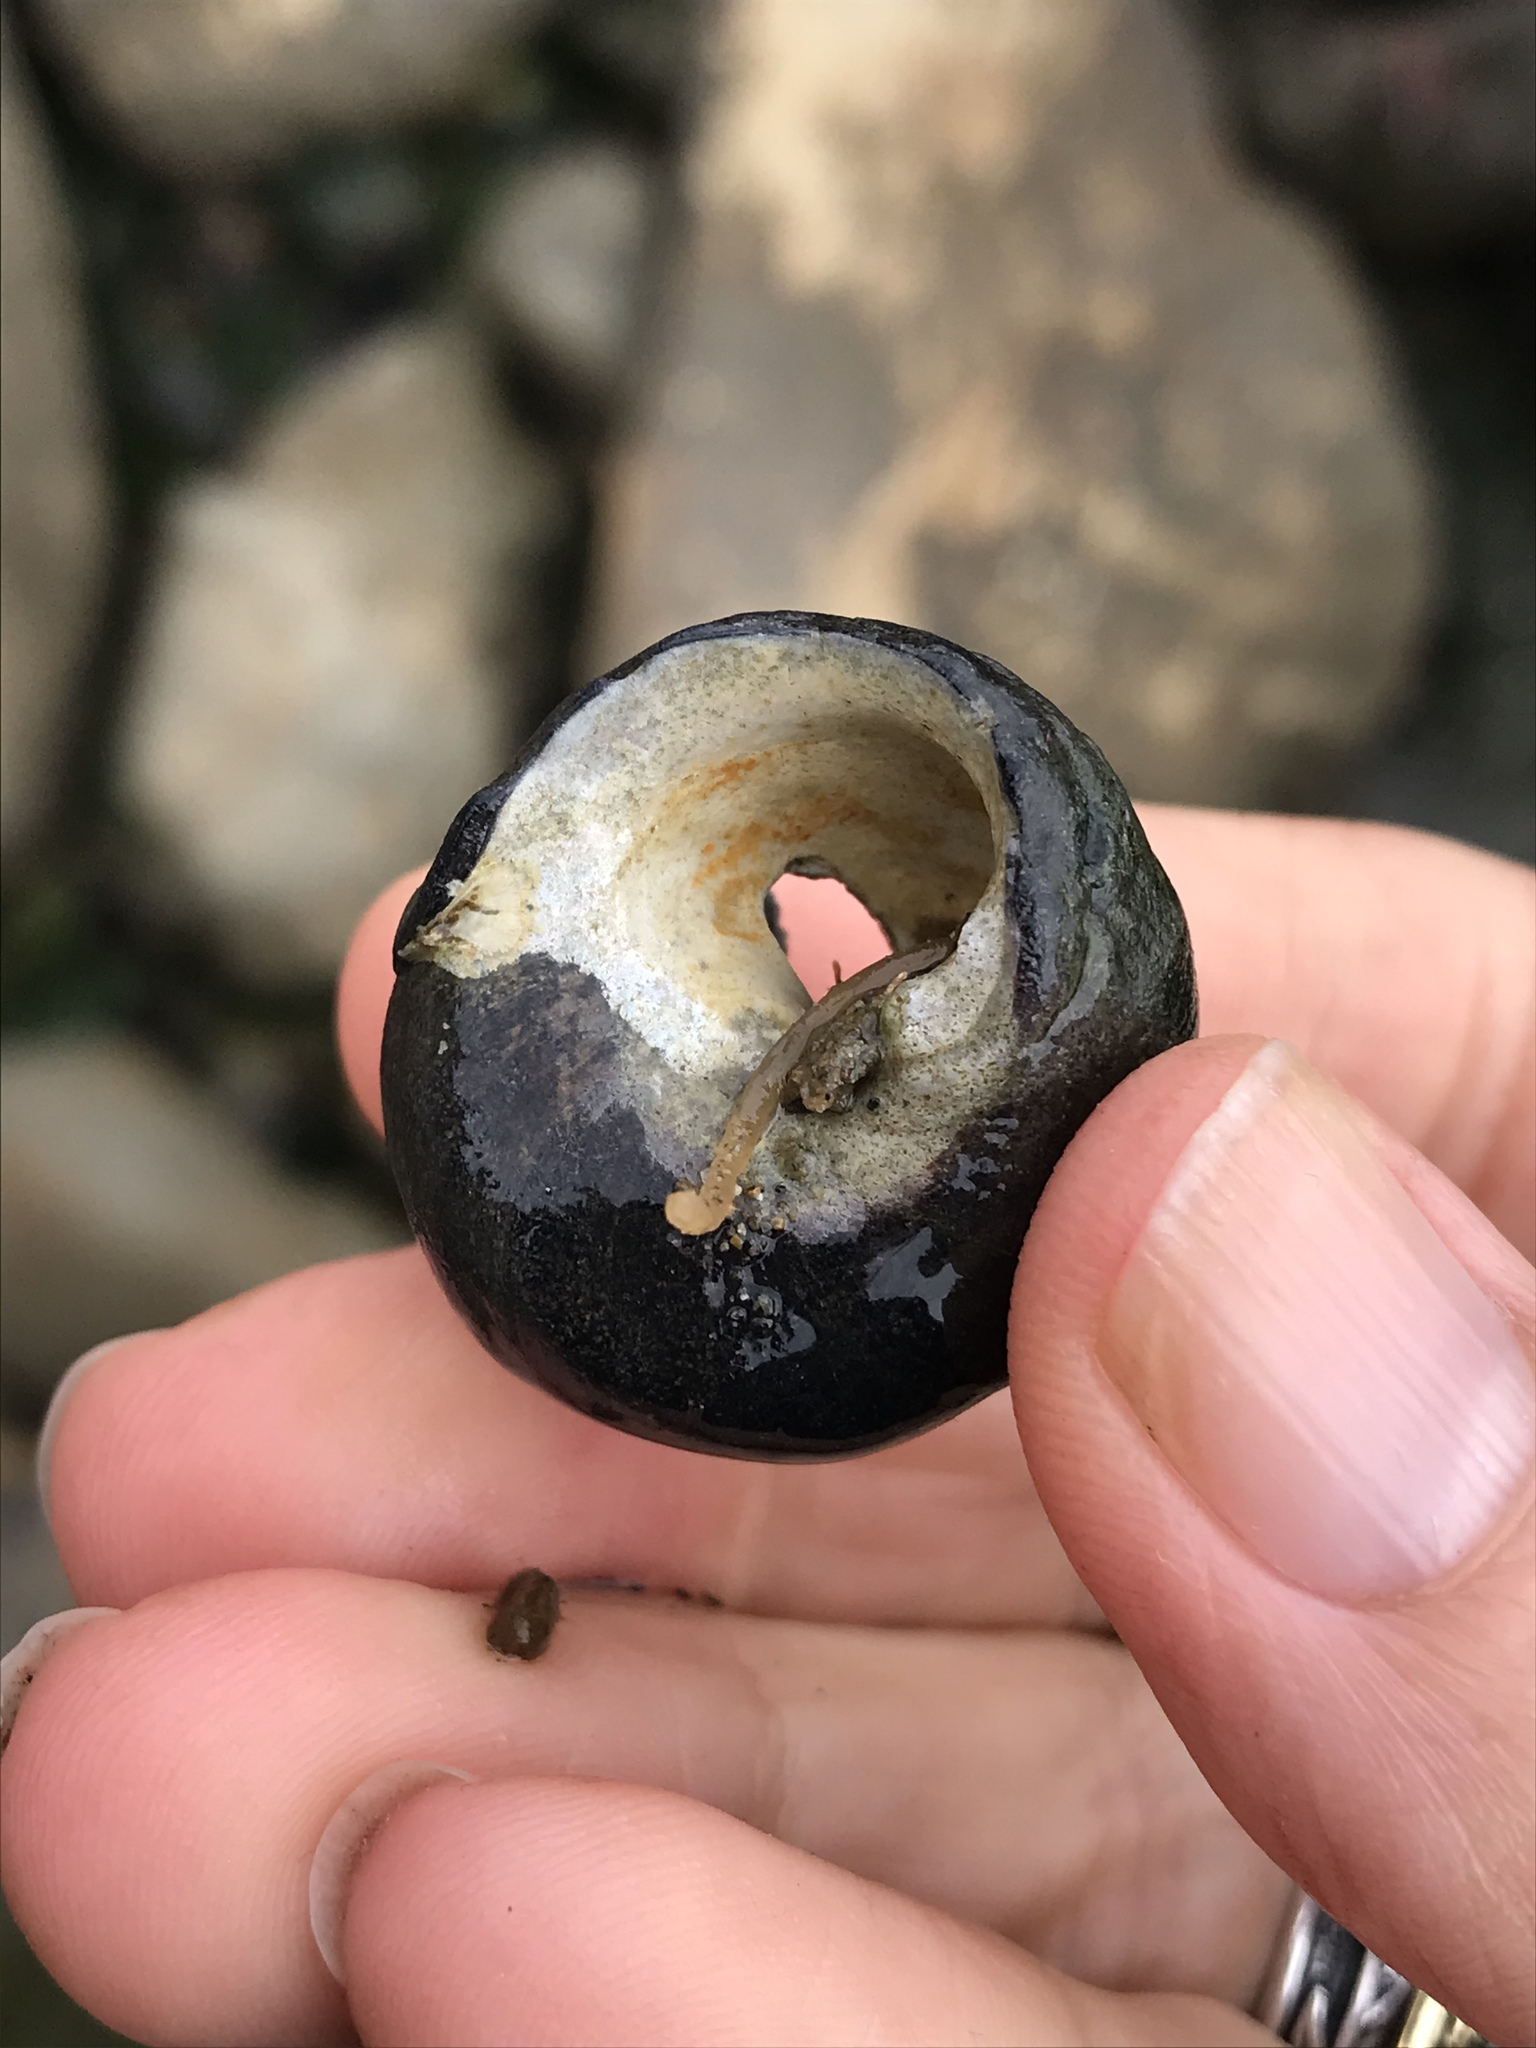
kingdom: Animalia
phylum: Mollusca
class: Gastropoda
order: Trochida
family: Tegulidae
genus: Tegula
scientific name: Tegula funebralis
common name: Black tegula
